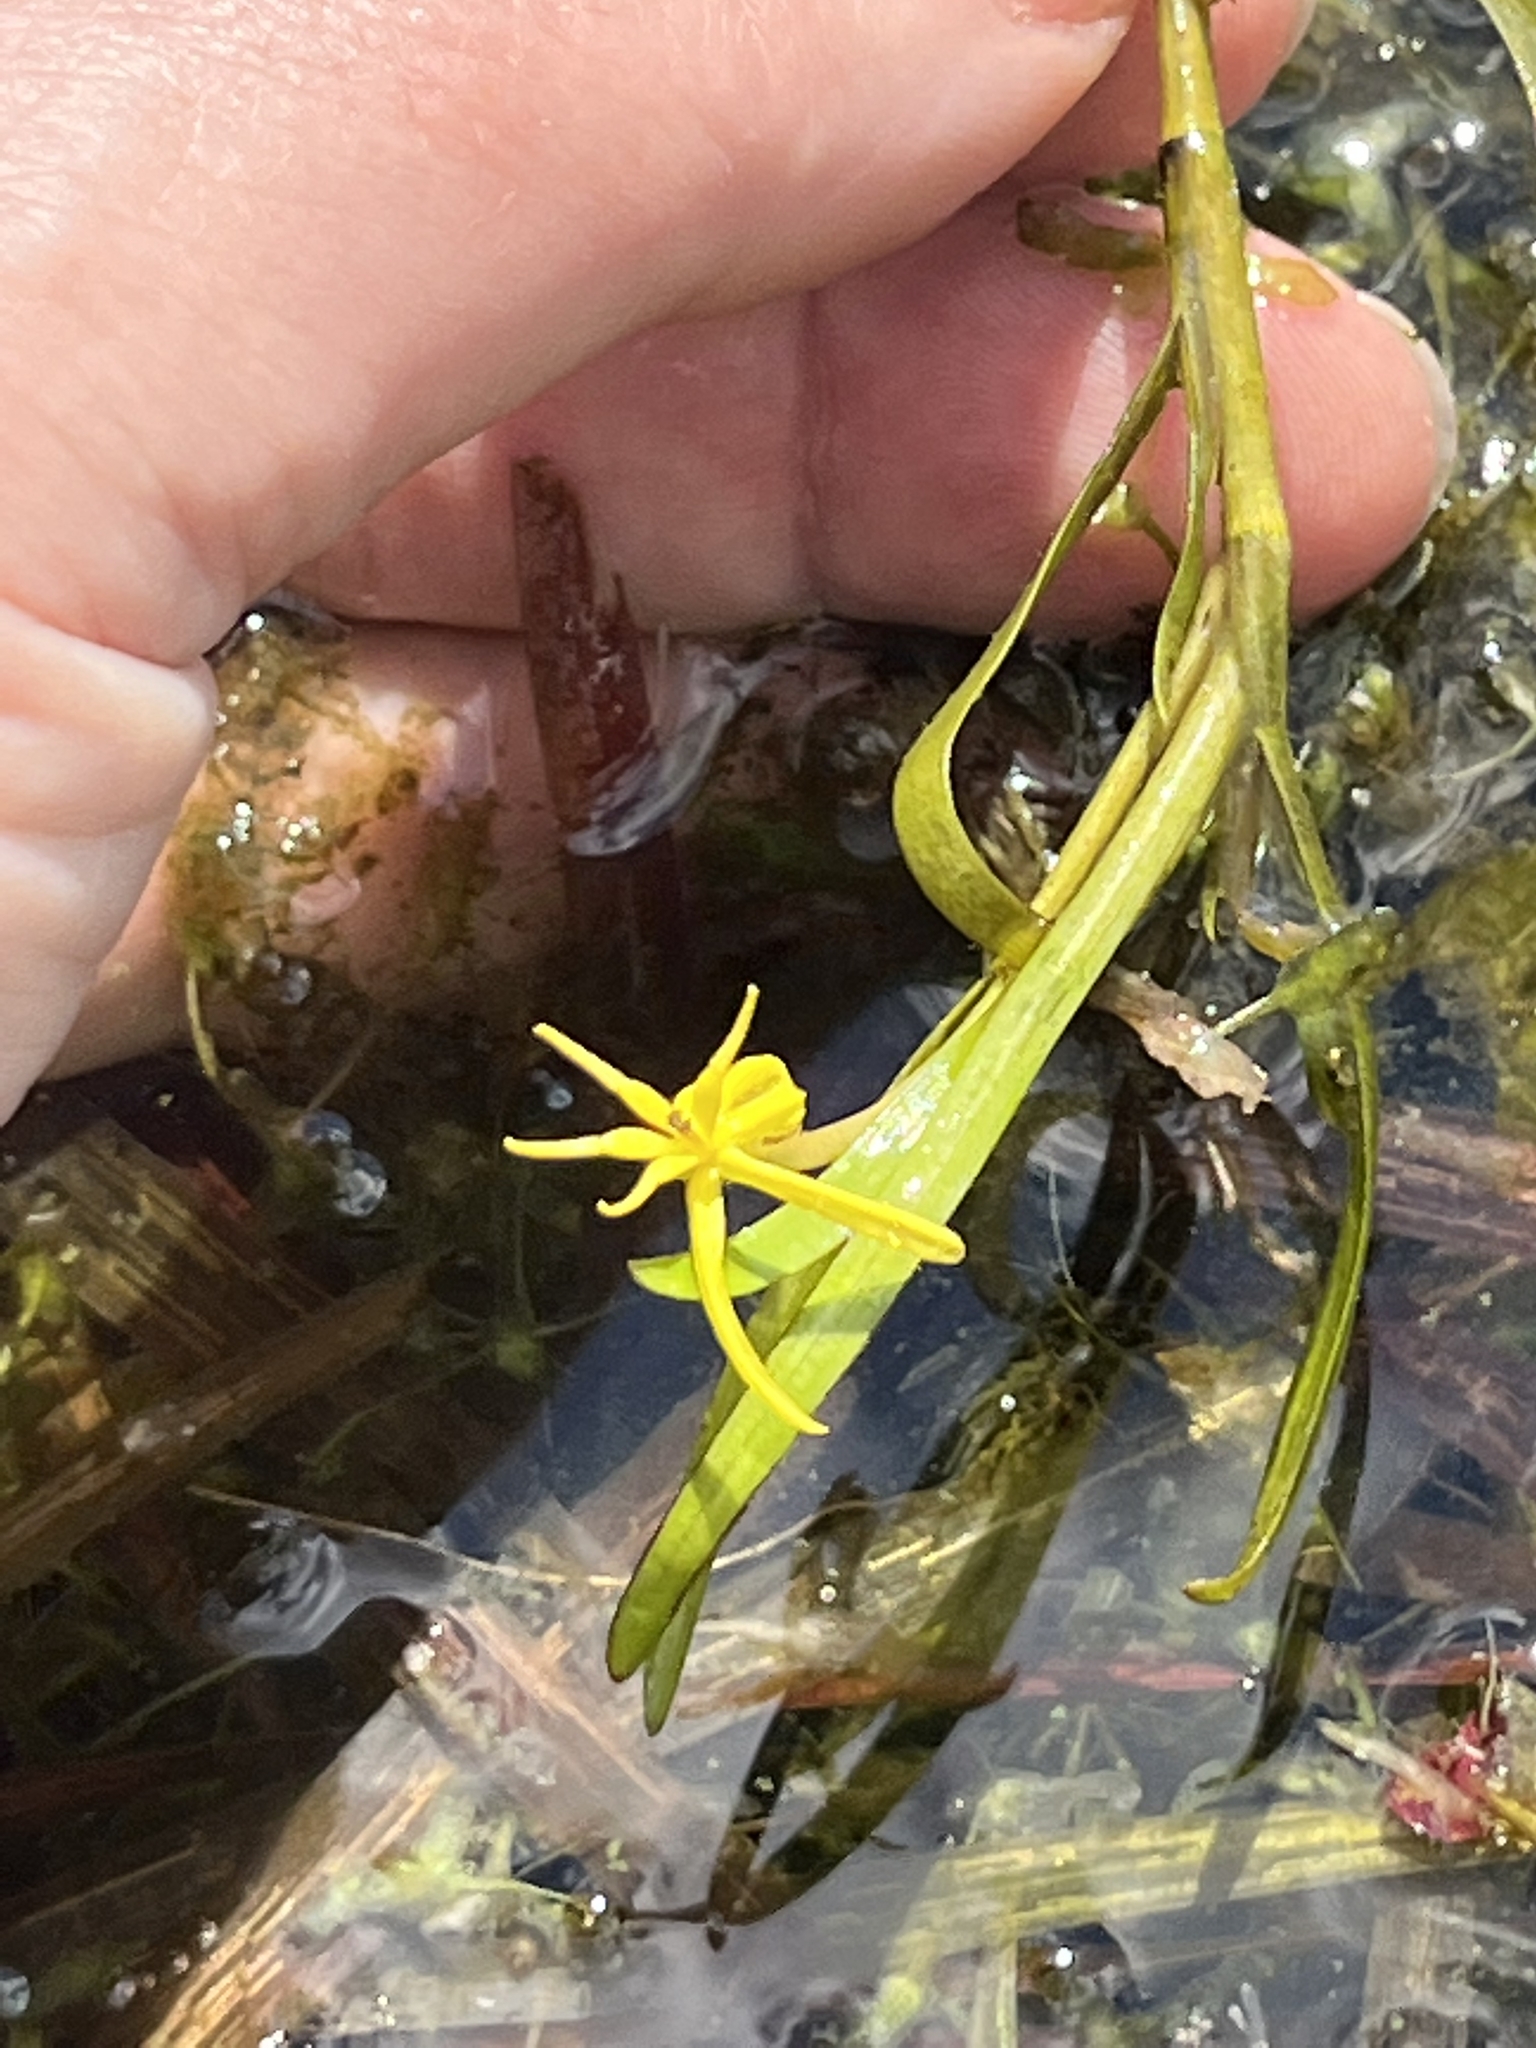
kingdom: Plantae
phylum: Tracheophyta
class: Liliopsida
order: Commelinales
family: Pontederiaceae
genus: Heteranthera
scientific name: Heteranthera dubia
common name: Grass-leaved mud plantain
